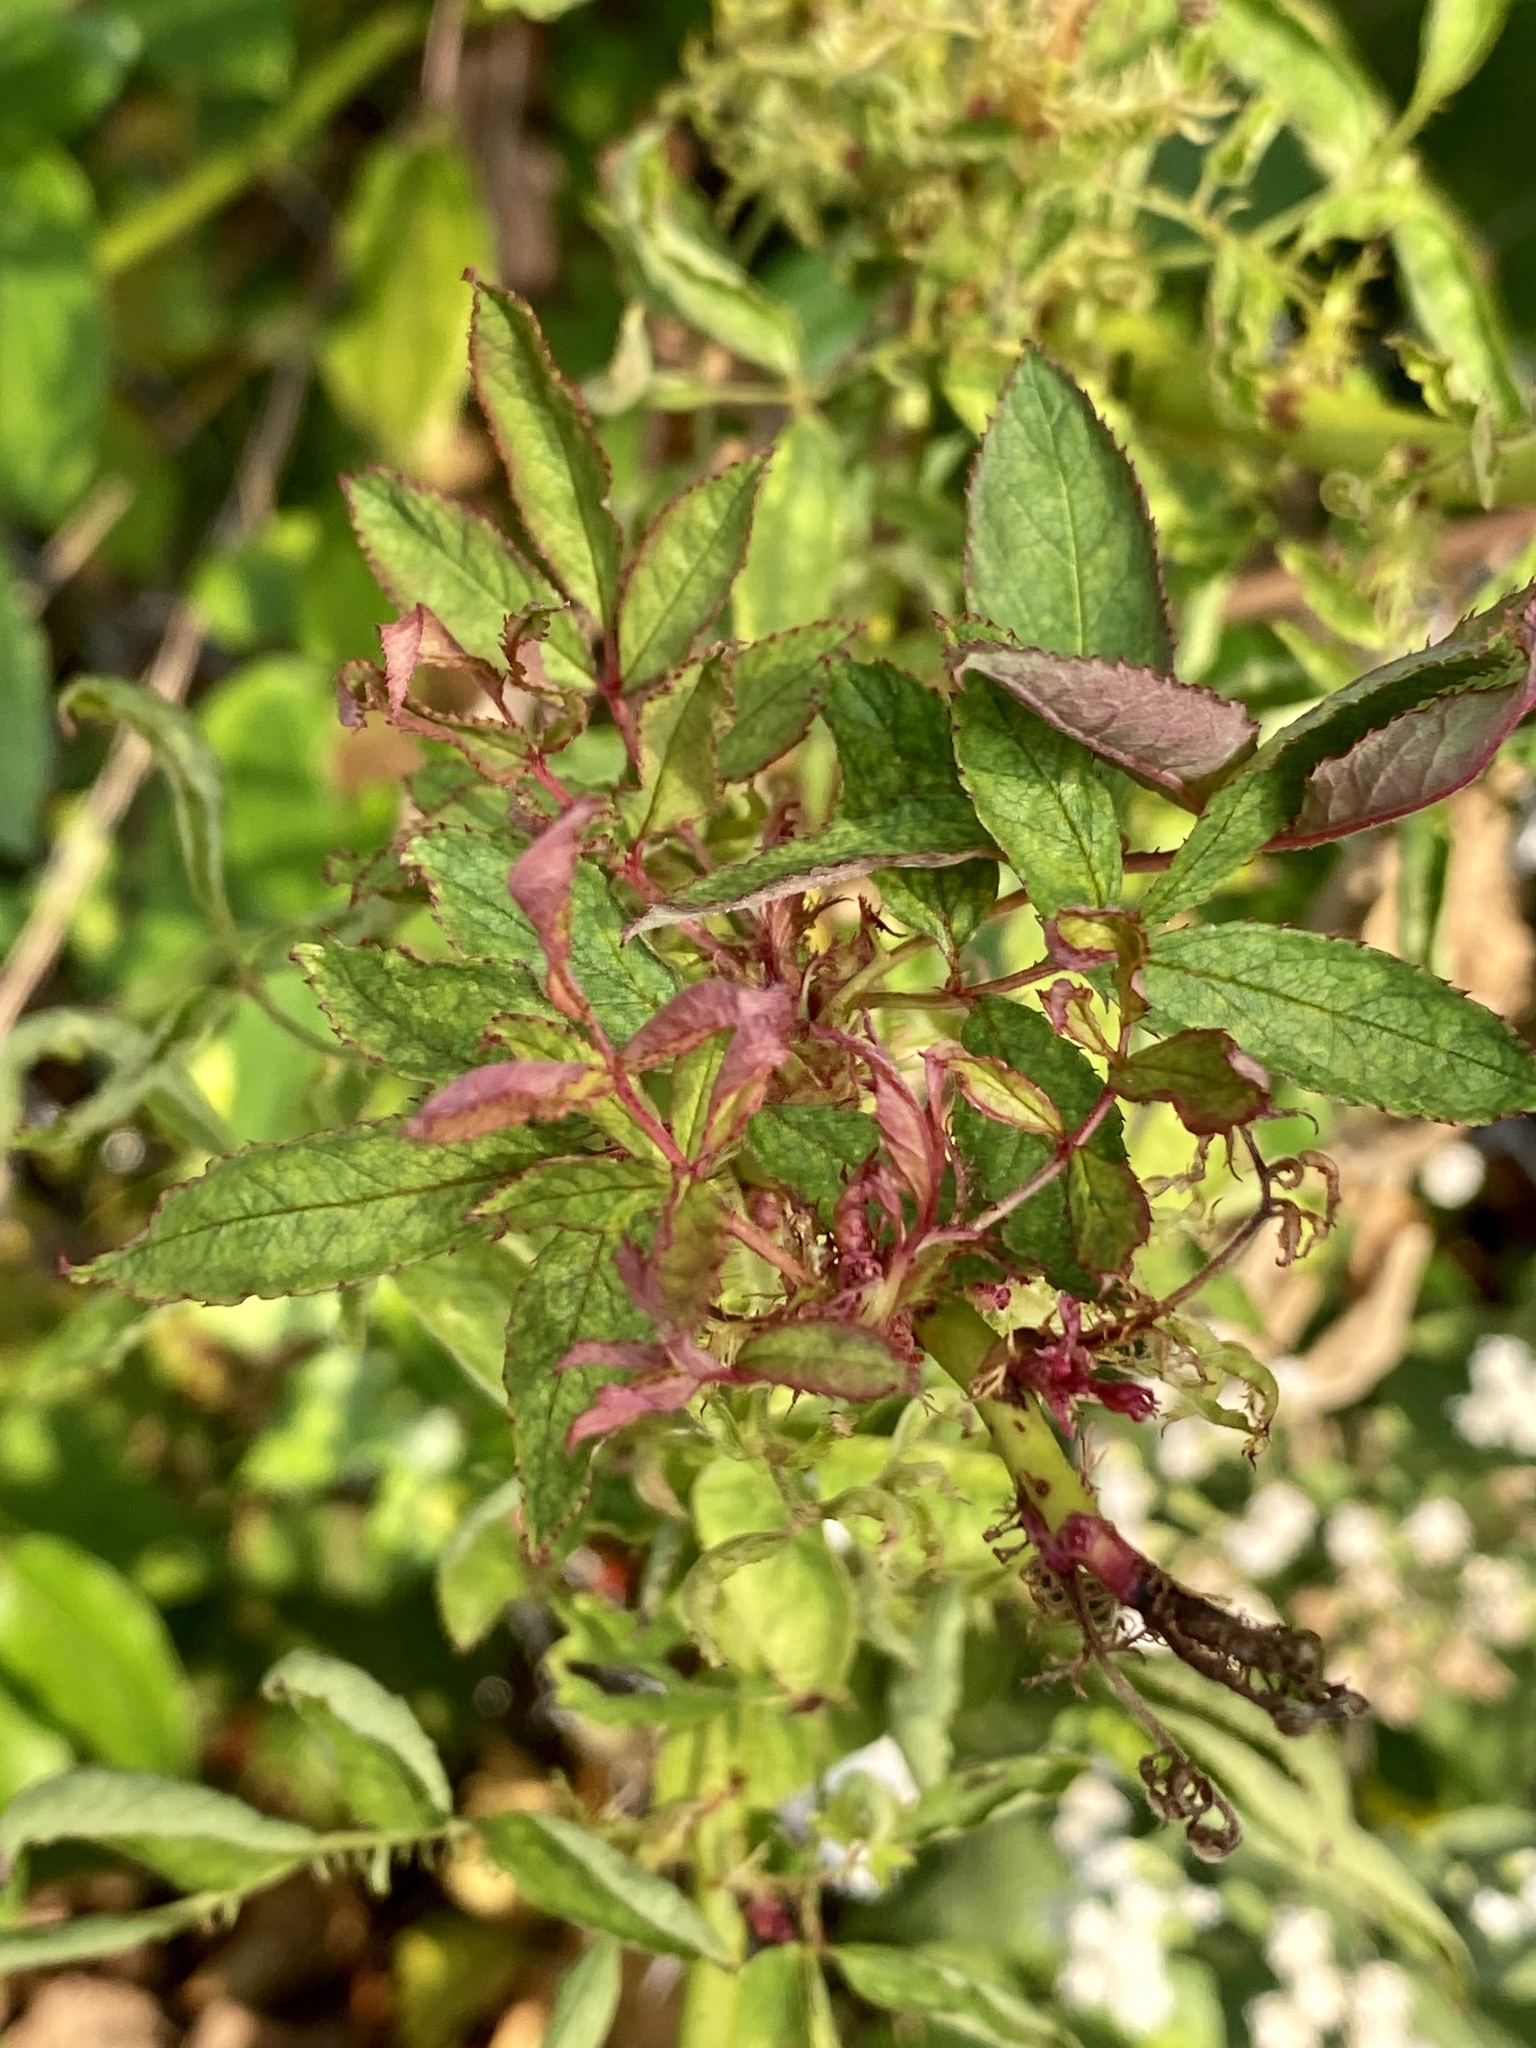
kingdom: Viruses
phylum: Negarnaviricota
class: Ellioviricetes
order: Bunyavirales
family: Fimoviridae
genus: Emaravirus
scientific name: Emaravirus rosae
